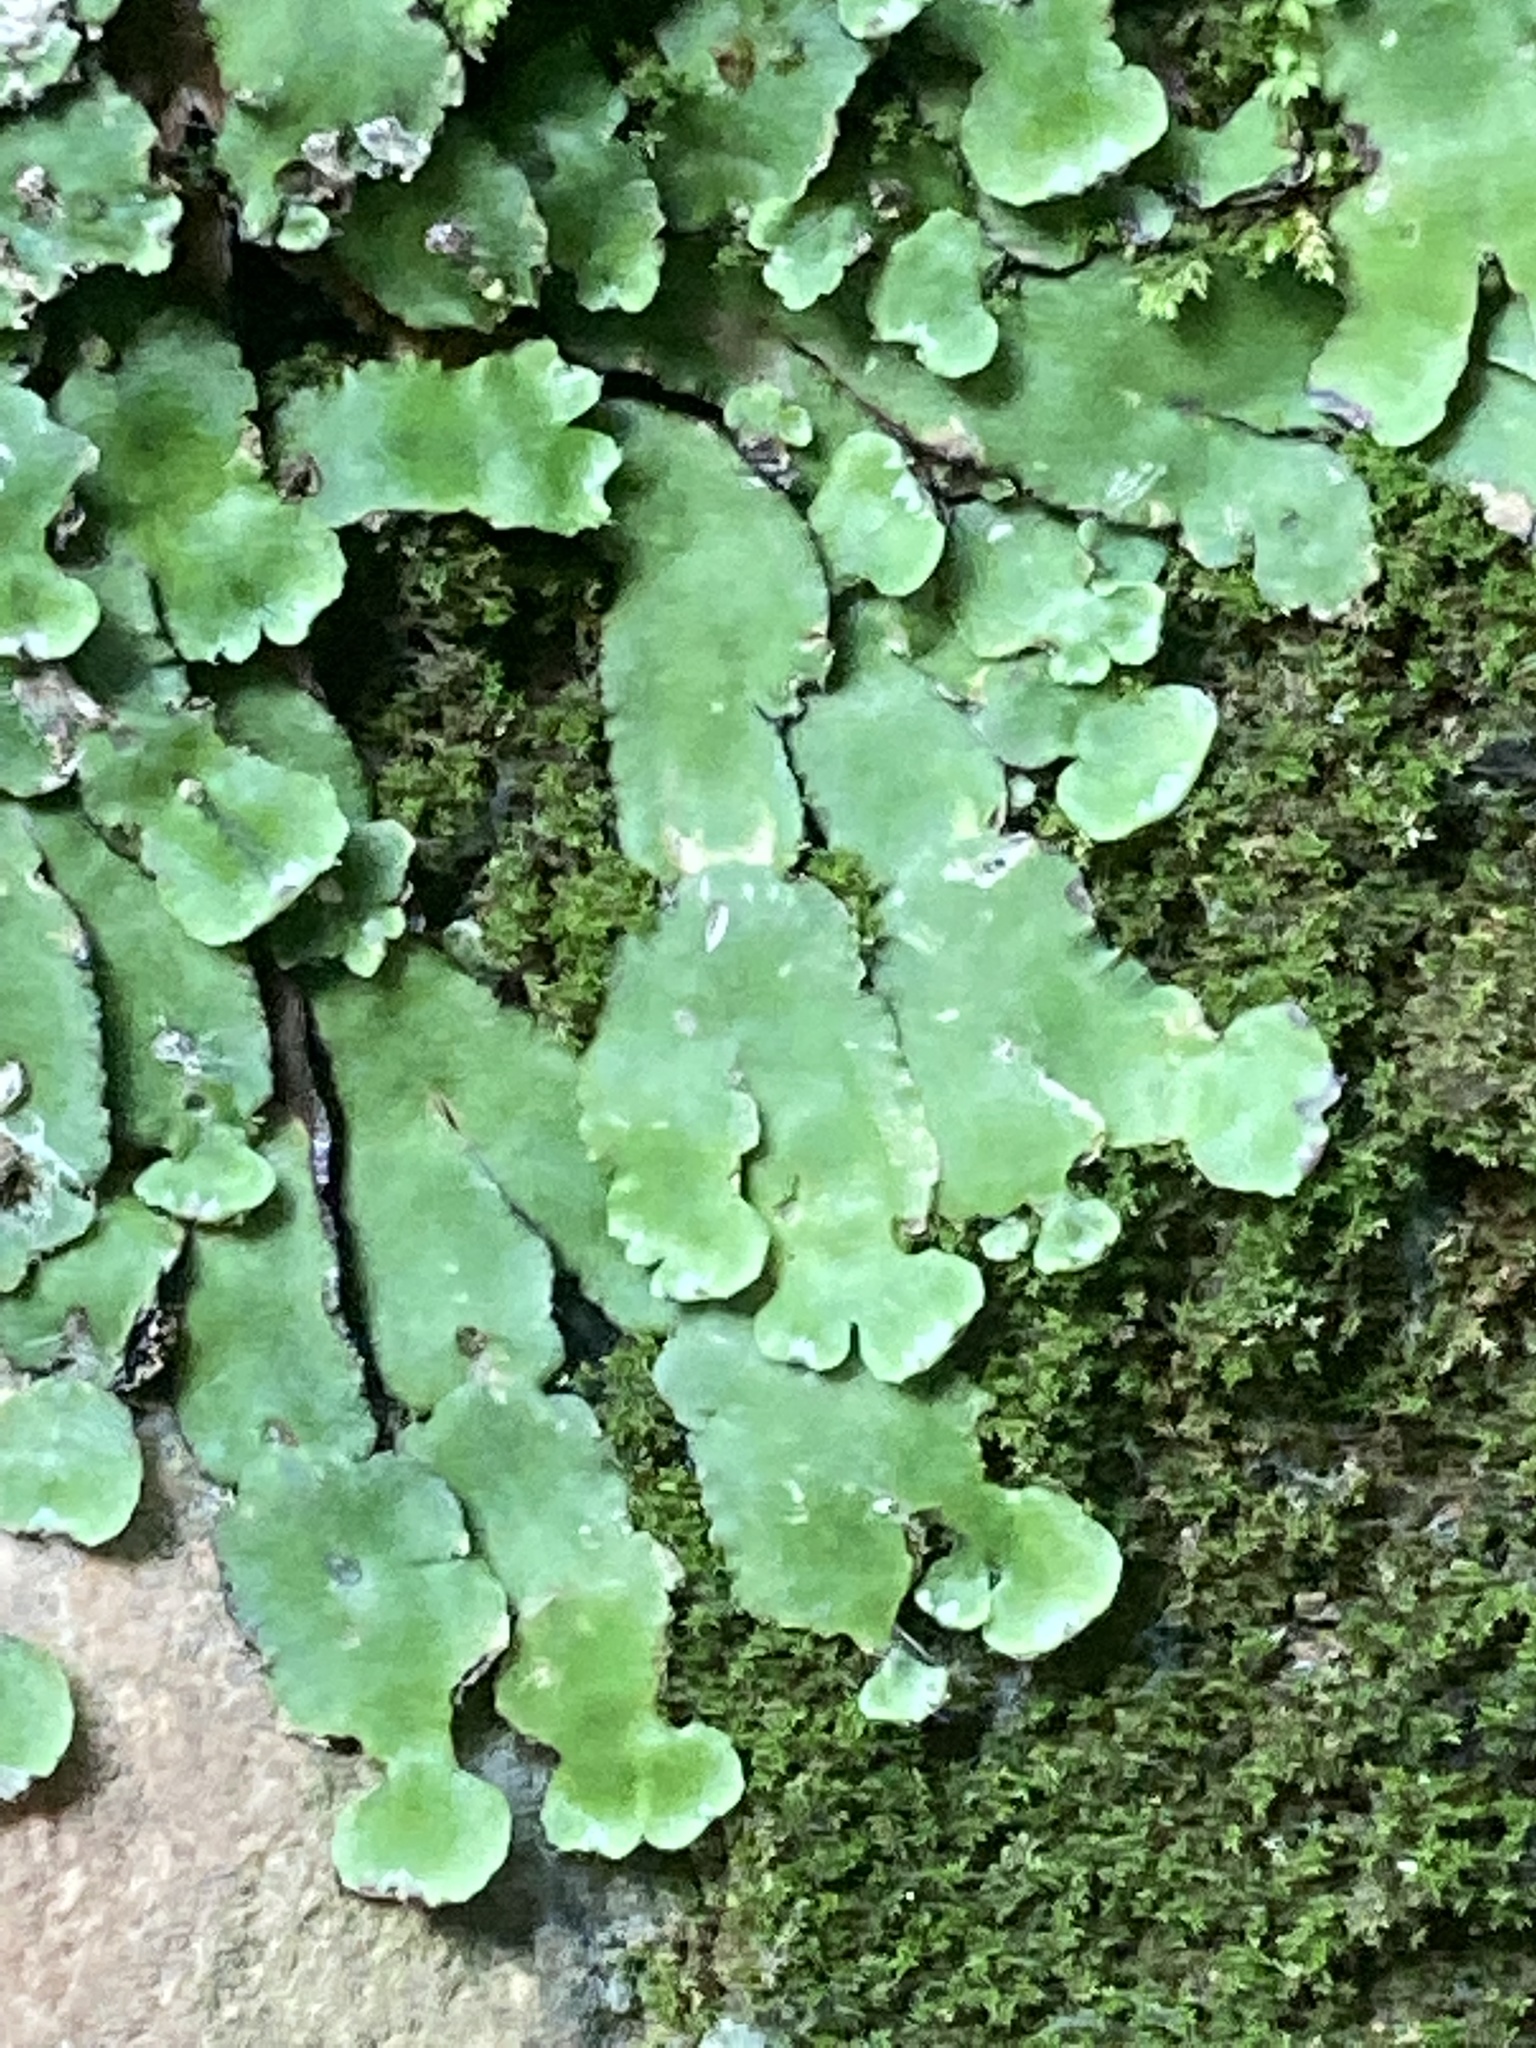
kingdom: Plantae
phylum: Marchantiophyta
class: Marchantiopsida
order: Marchantiales
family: Aytoniaceae
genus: Plagiochasma
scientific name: Plagiochasma rupestre
